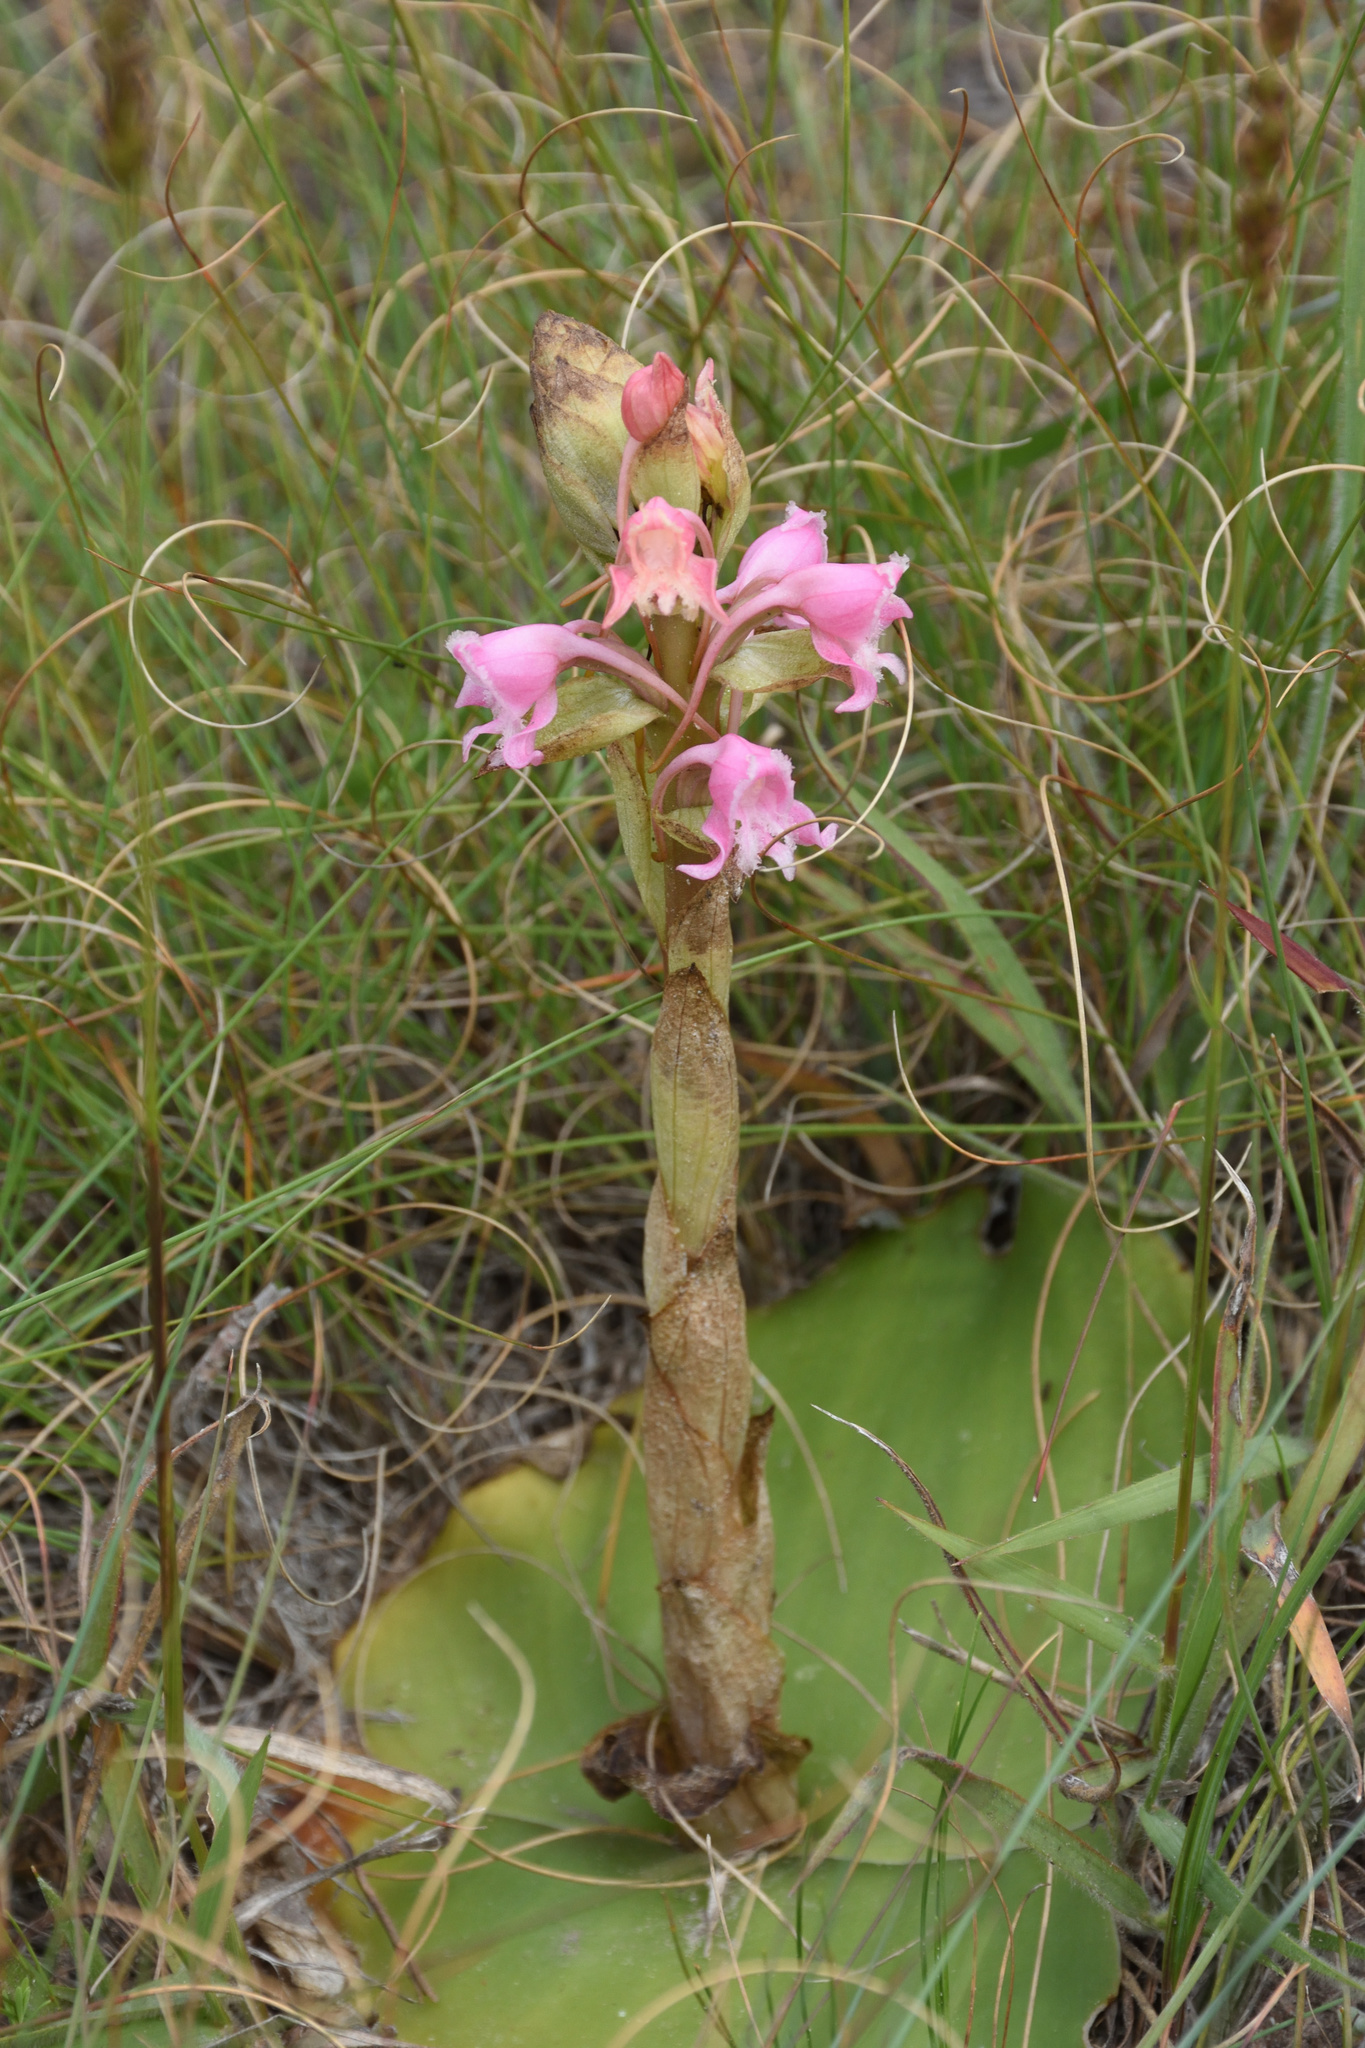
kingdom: Plantae
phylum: Tracheophyta
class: Liliopsida
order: Asparagales
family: Orchidaceae
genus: Satyrium
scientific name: Satyrium membranaceum
